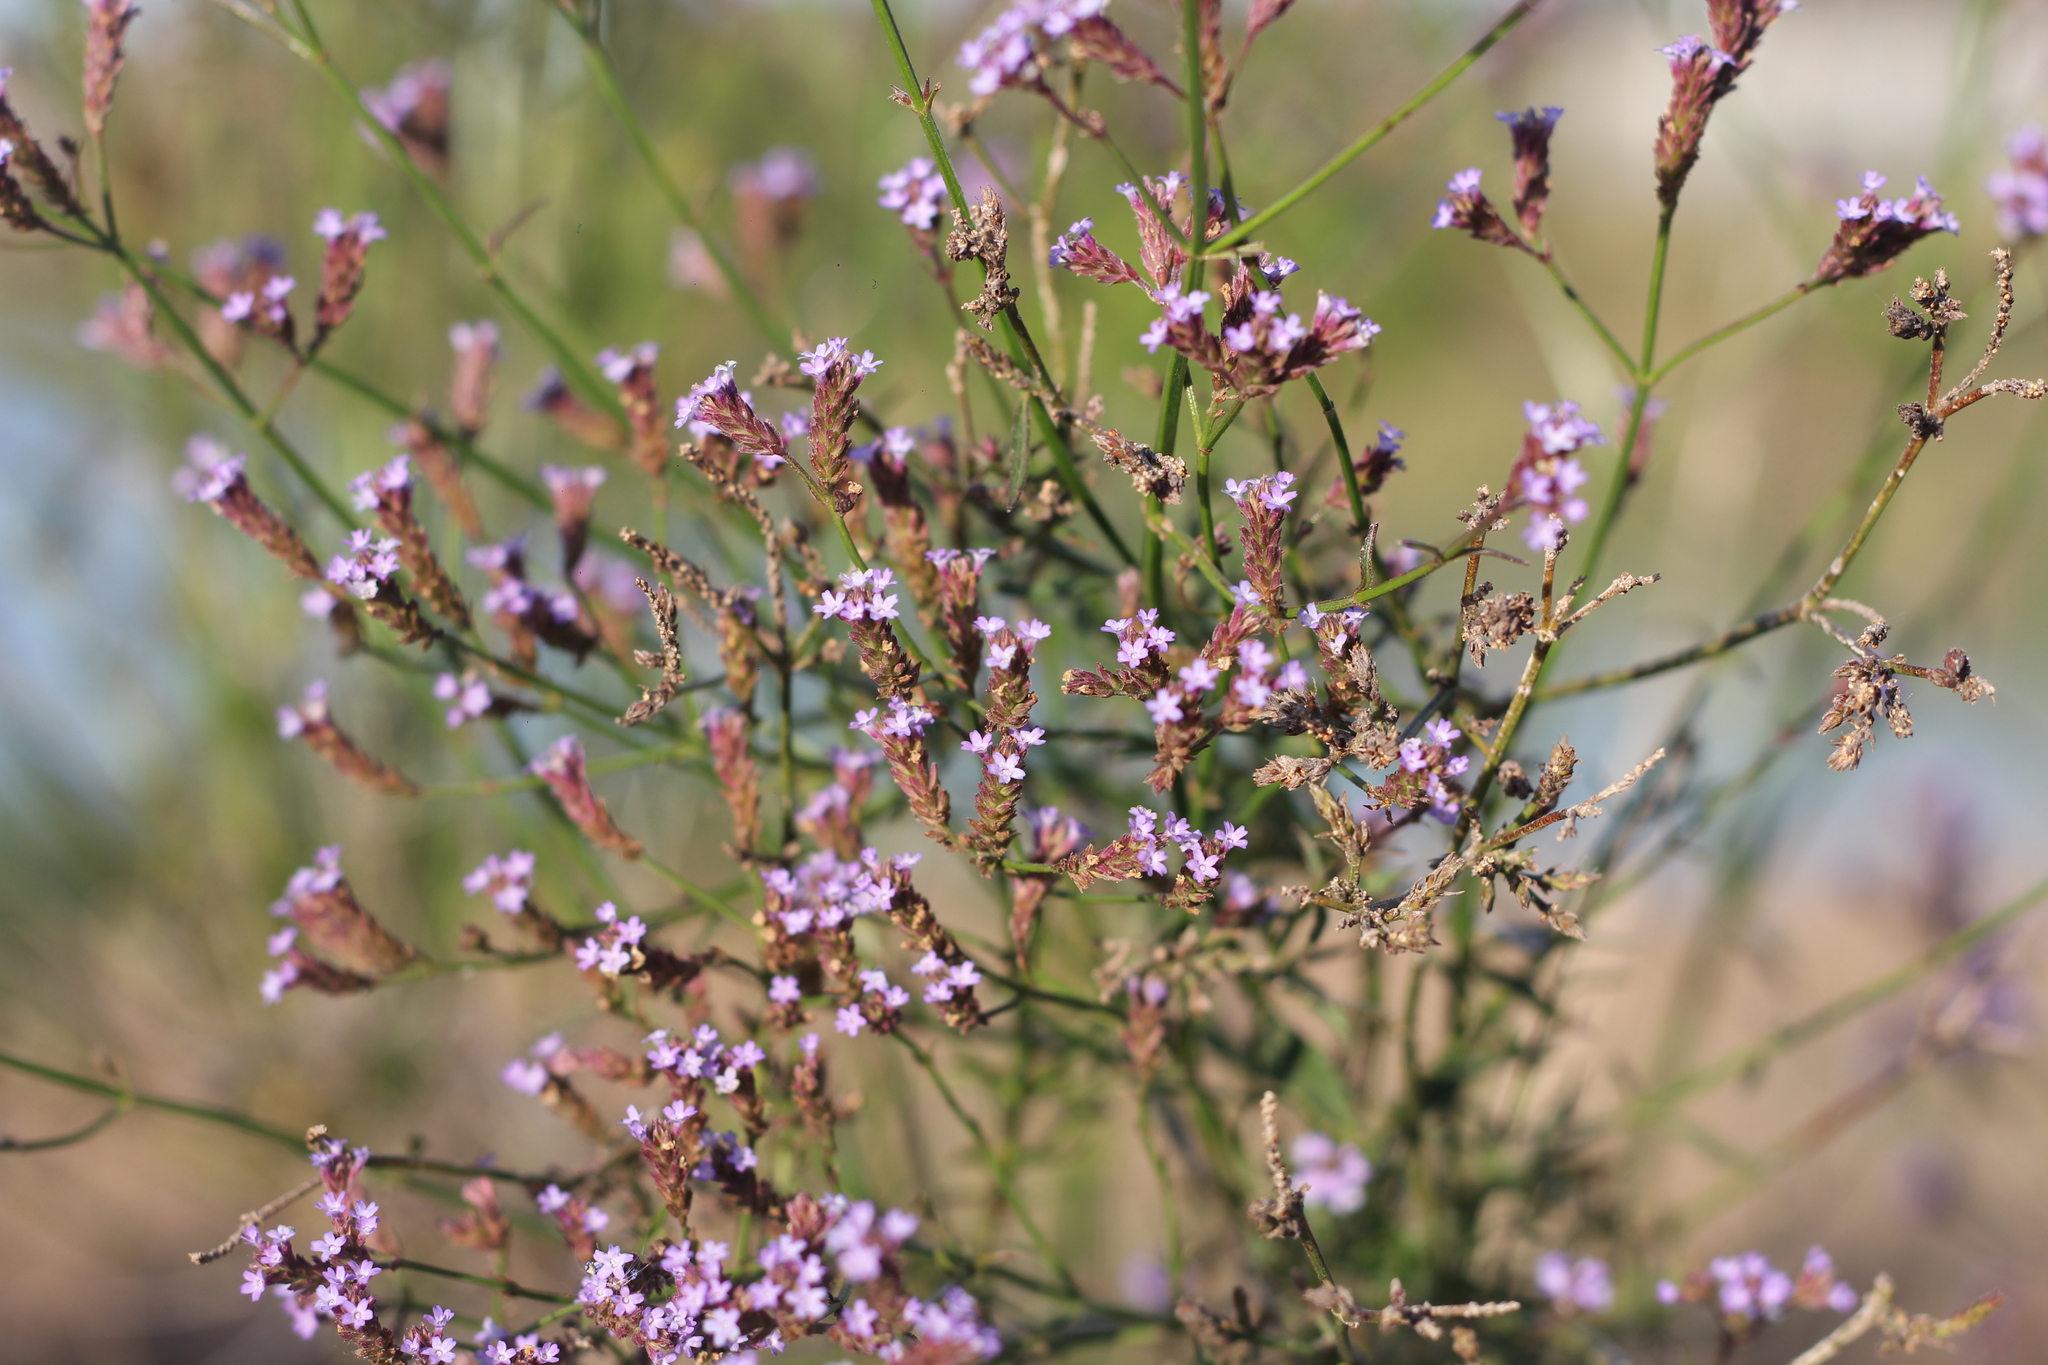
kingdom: Plantae
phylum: Tracheophyta
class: Magnoliopsida
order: Lamiales
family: Verbenaceae
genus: Verbena
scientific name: Verbena bonariensis
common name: Purpletop vervain
